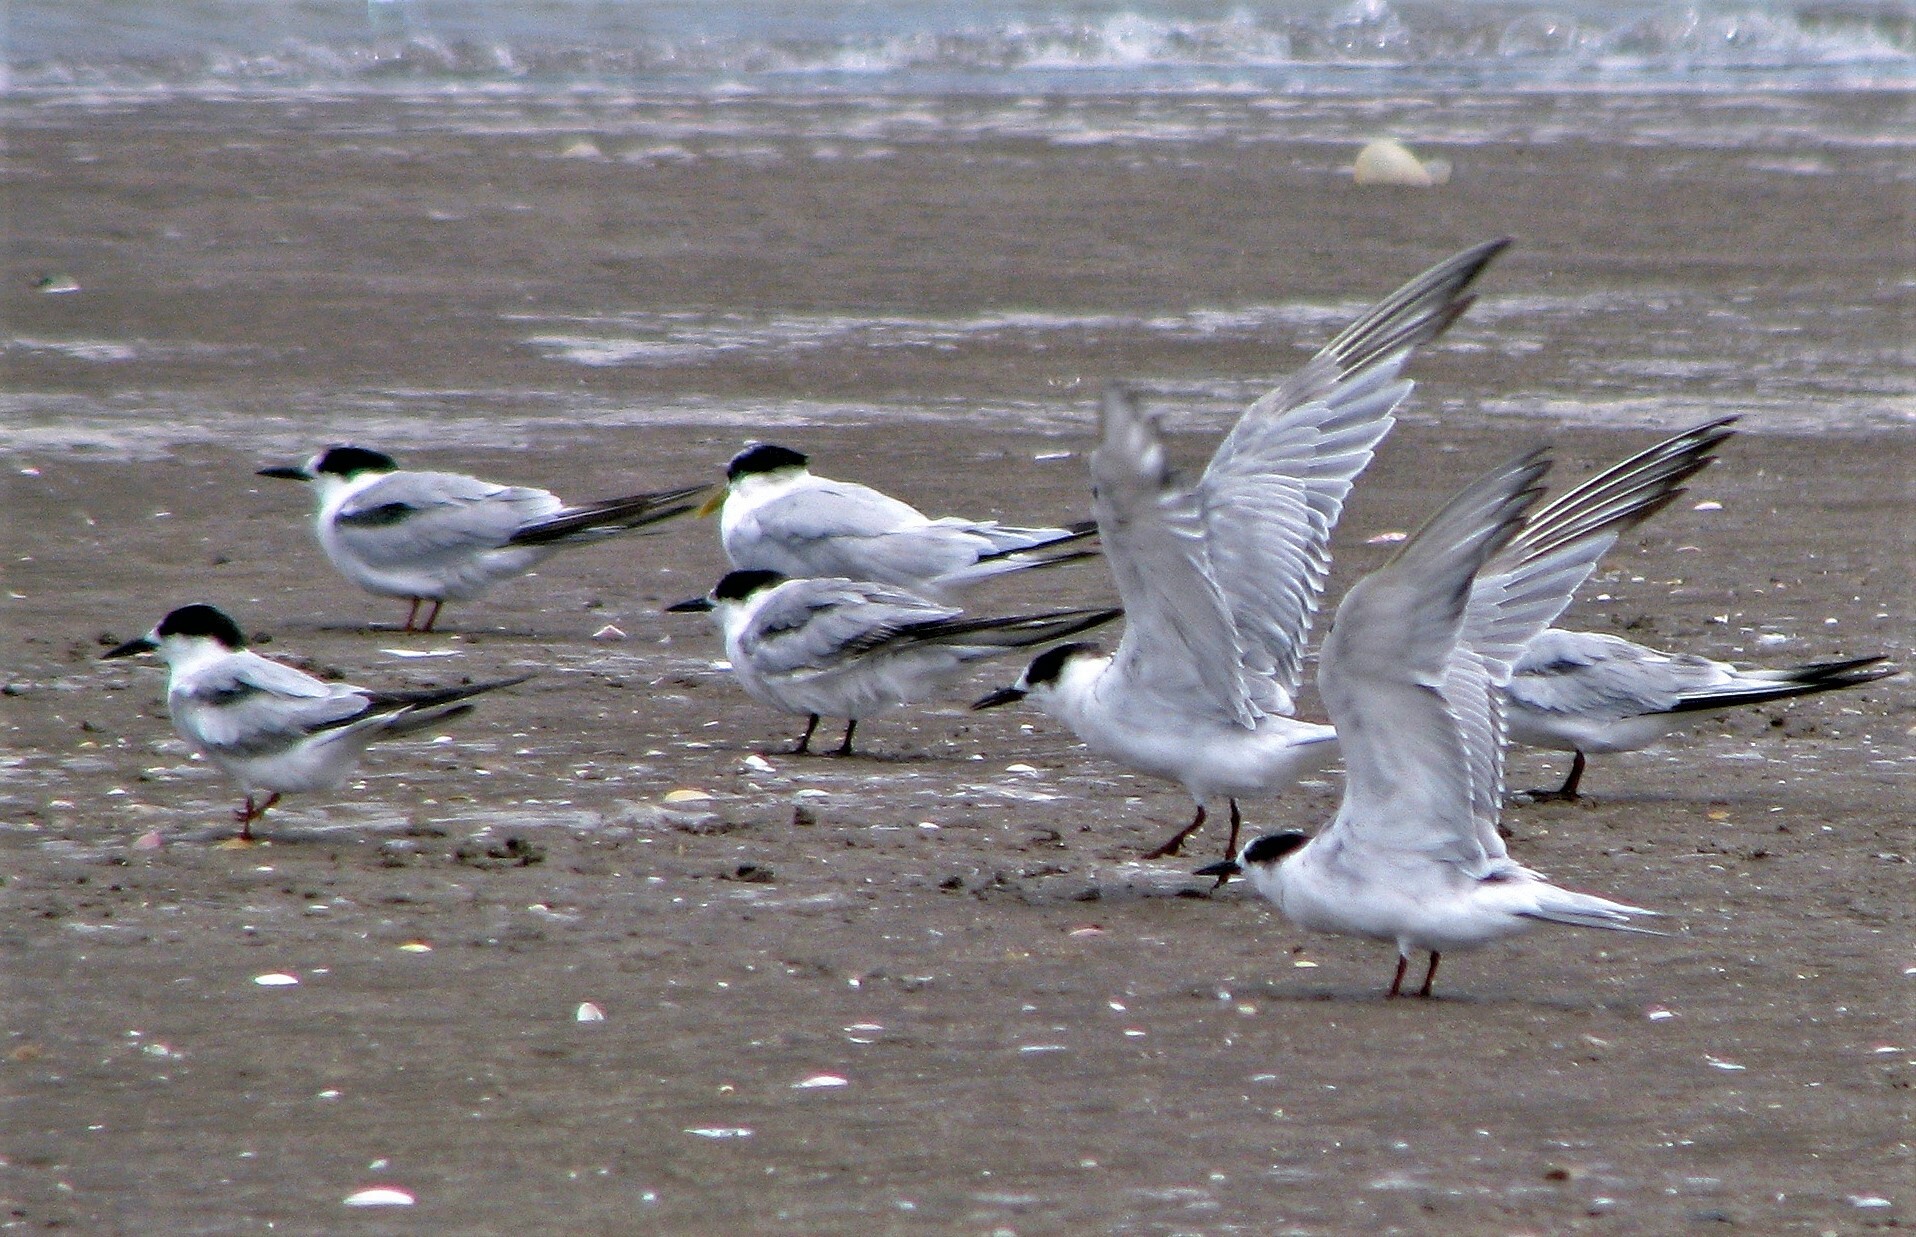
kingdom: Animalia
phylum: Chordata
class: Aves
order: Charadriiformes
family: Laridae
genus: Sterna
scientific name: Sterna hirundo
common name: Common tern
